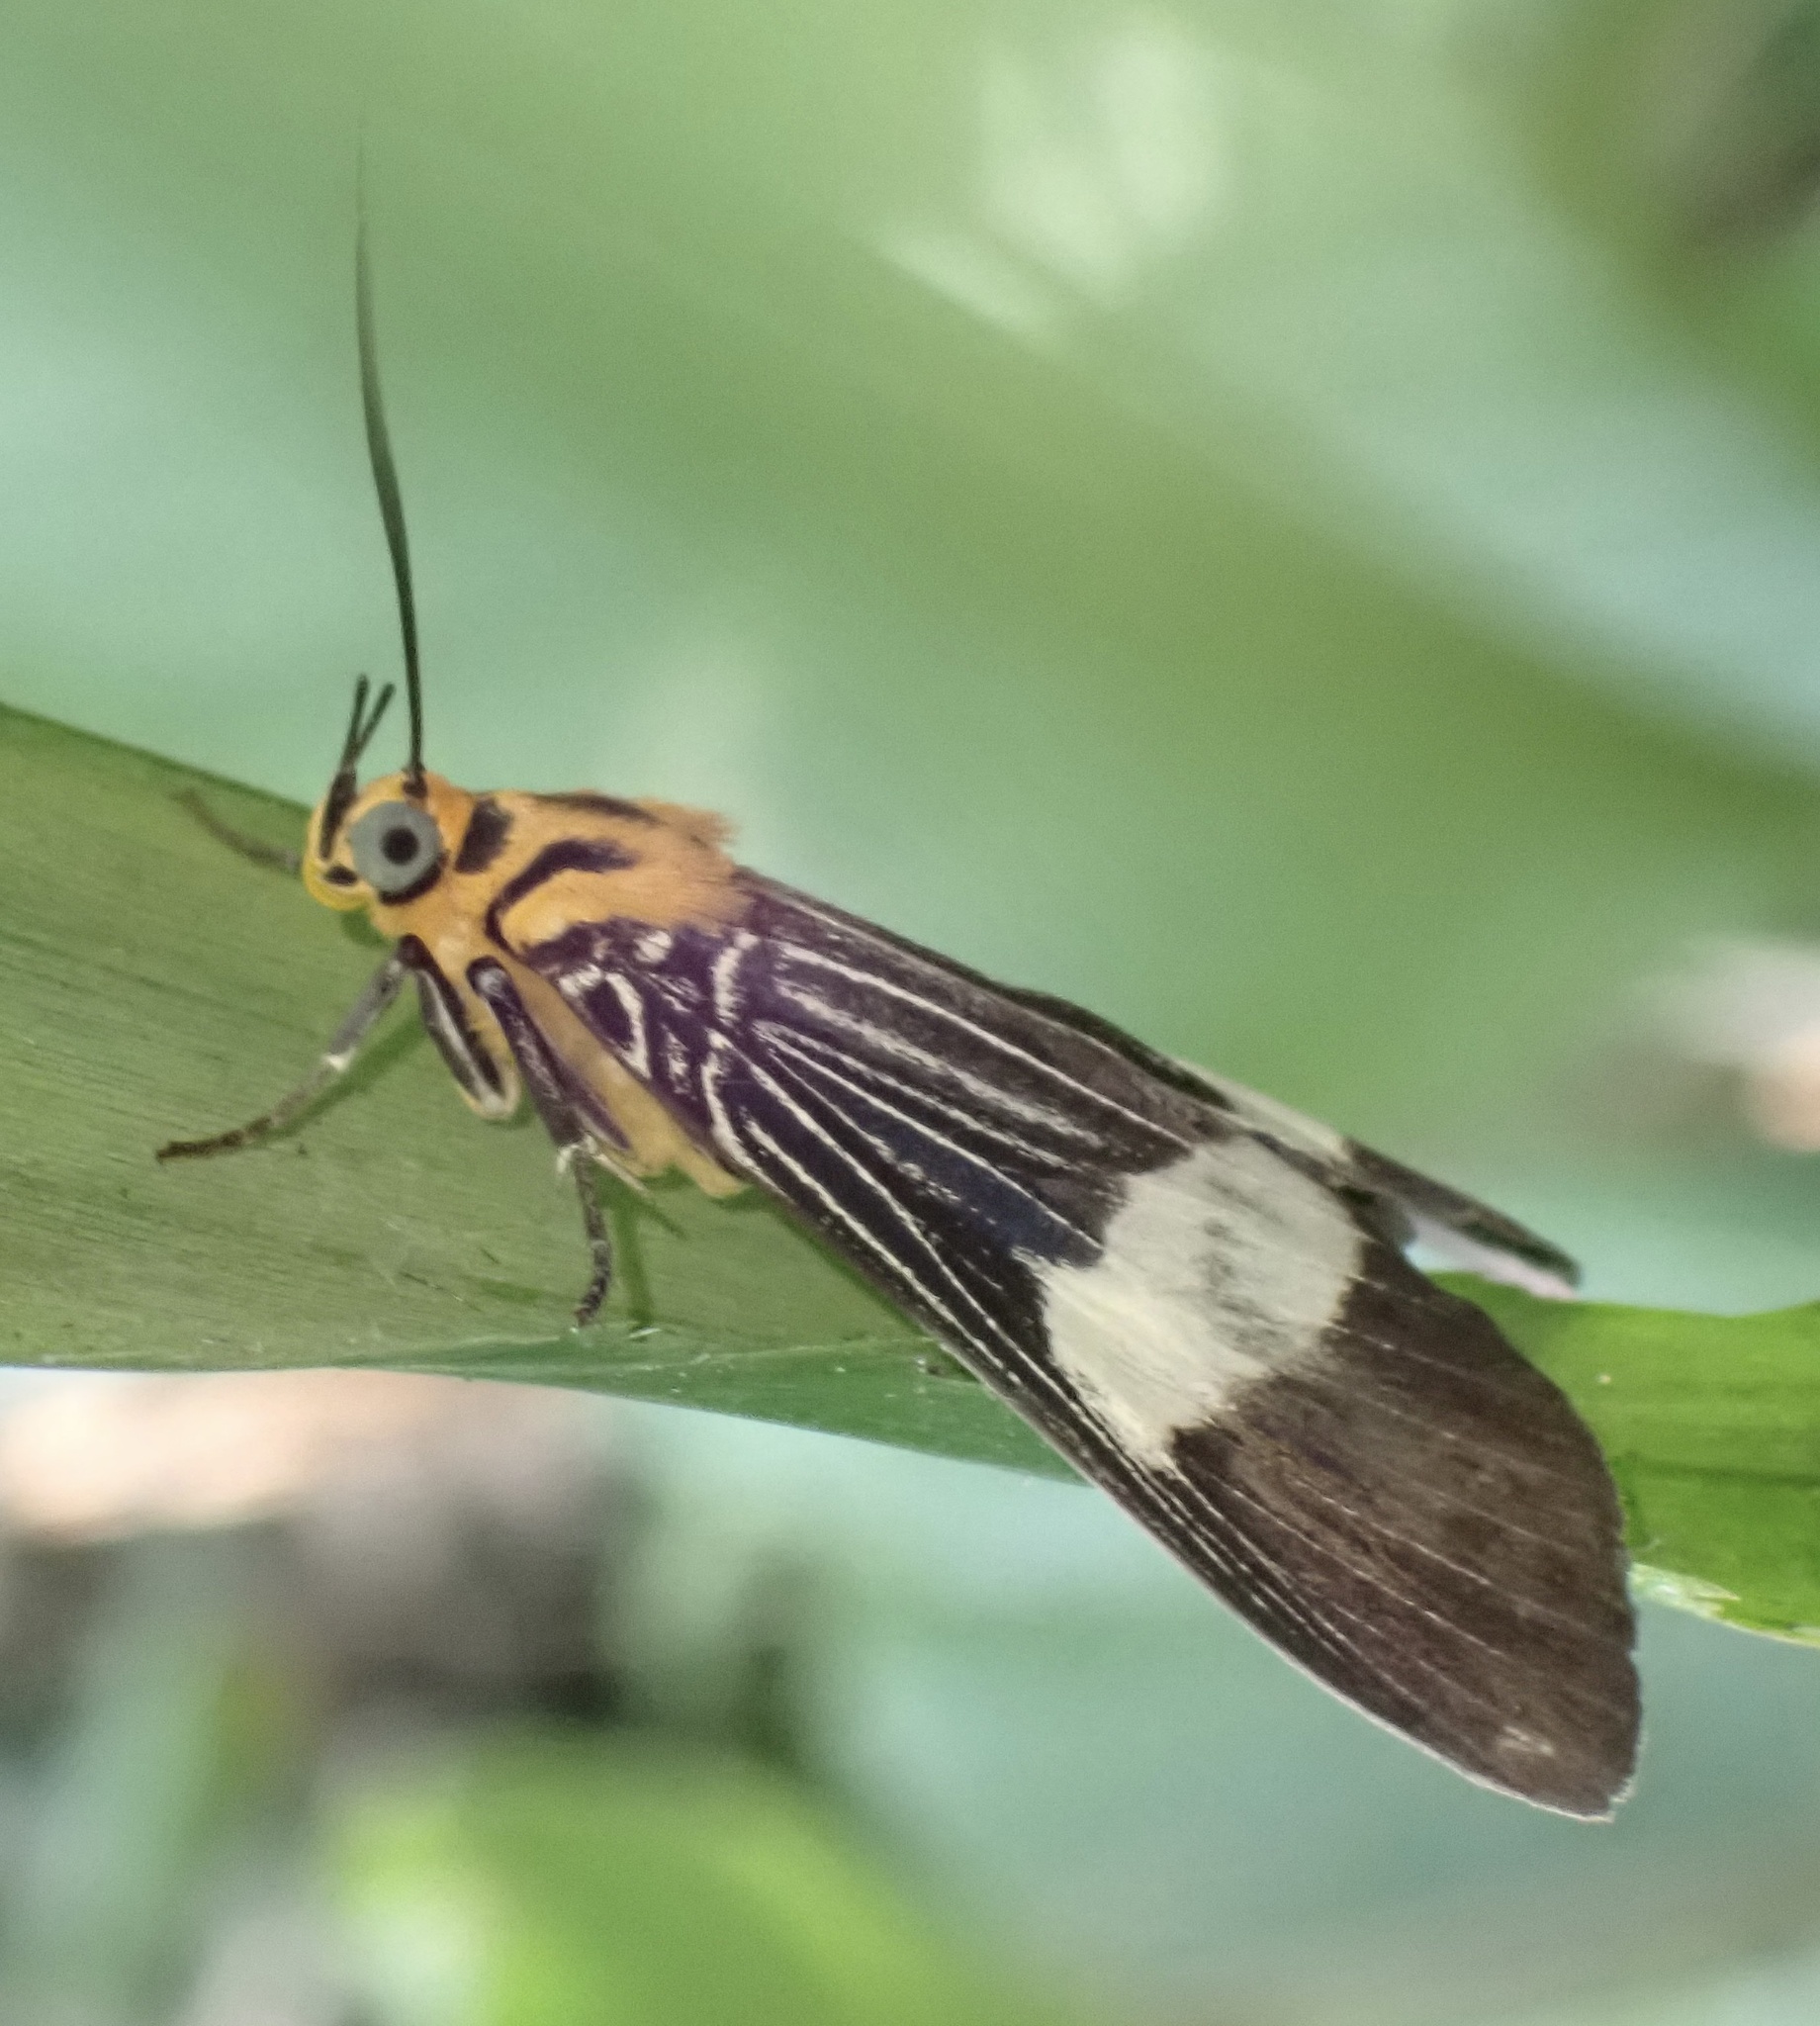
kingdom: Animalia
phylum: Arthropoda
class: Insecta
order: Lepidoptera
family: Erebidae
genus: Asota
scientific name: Asota eusemioides
